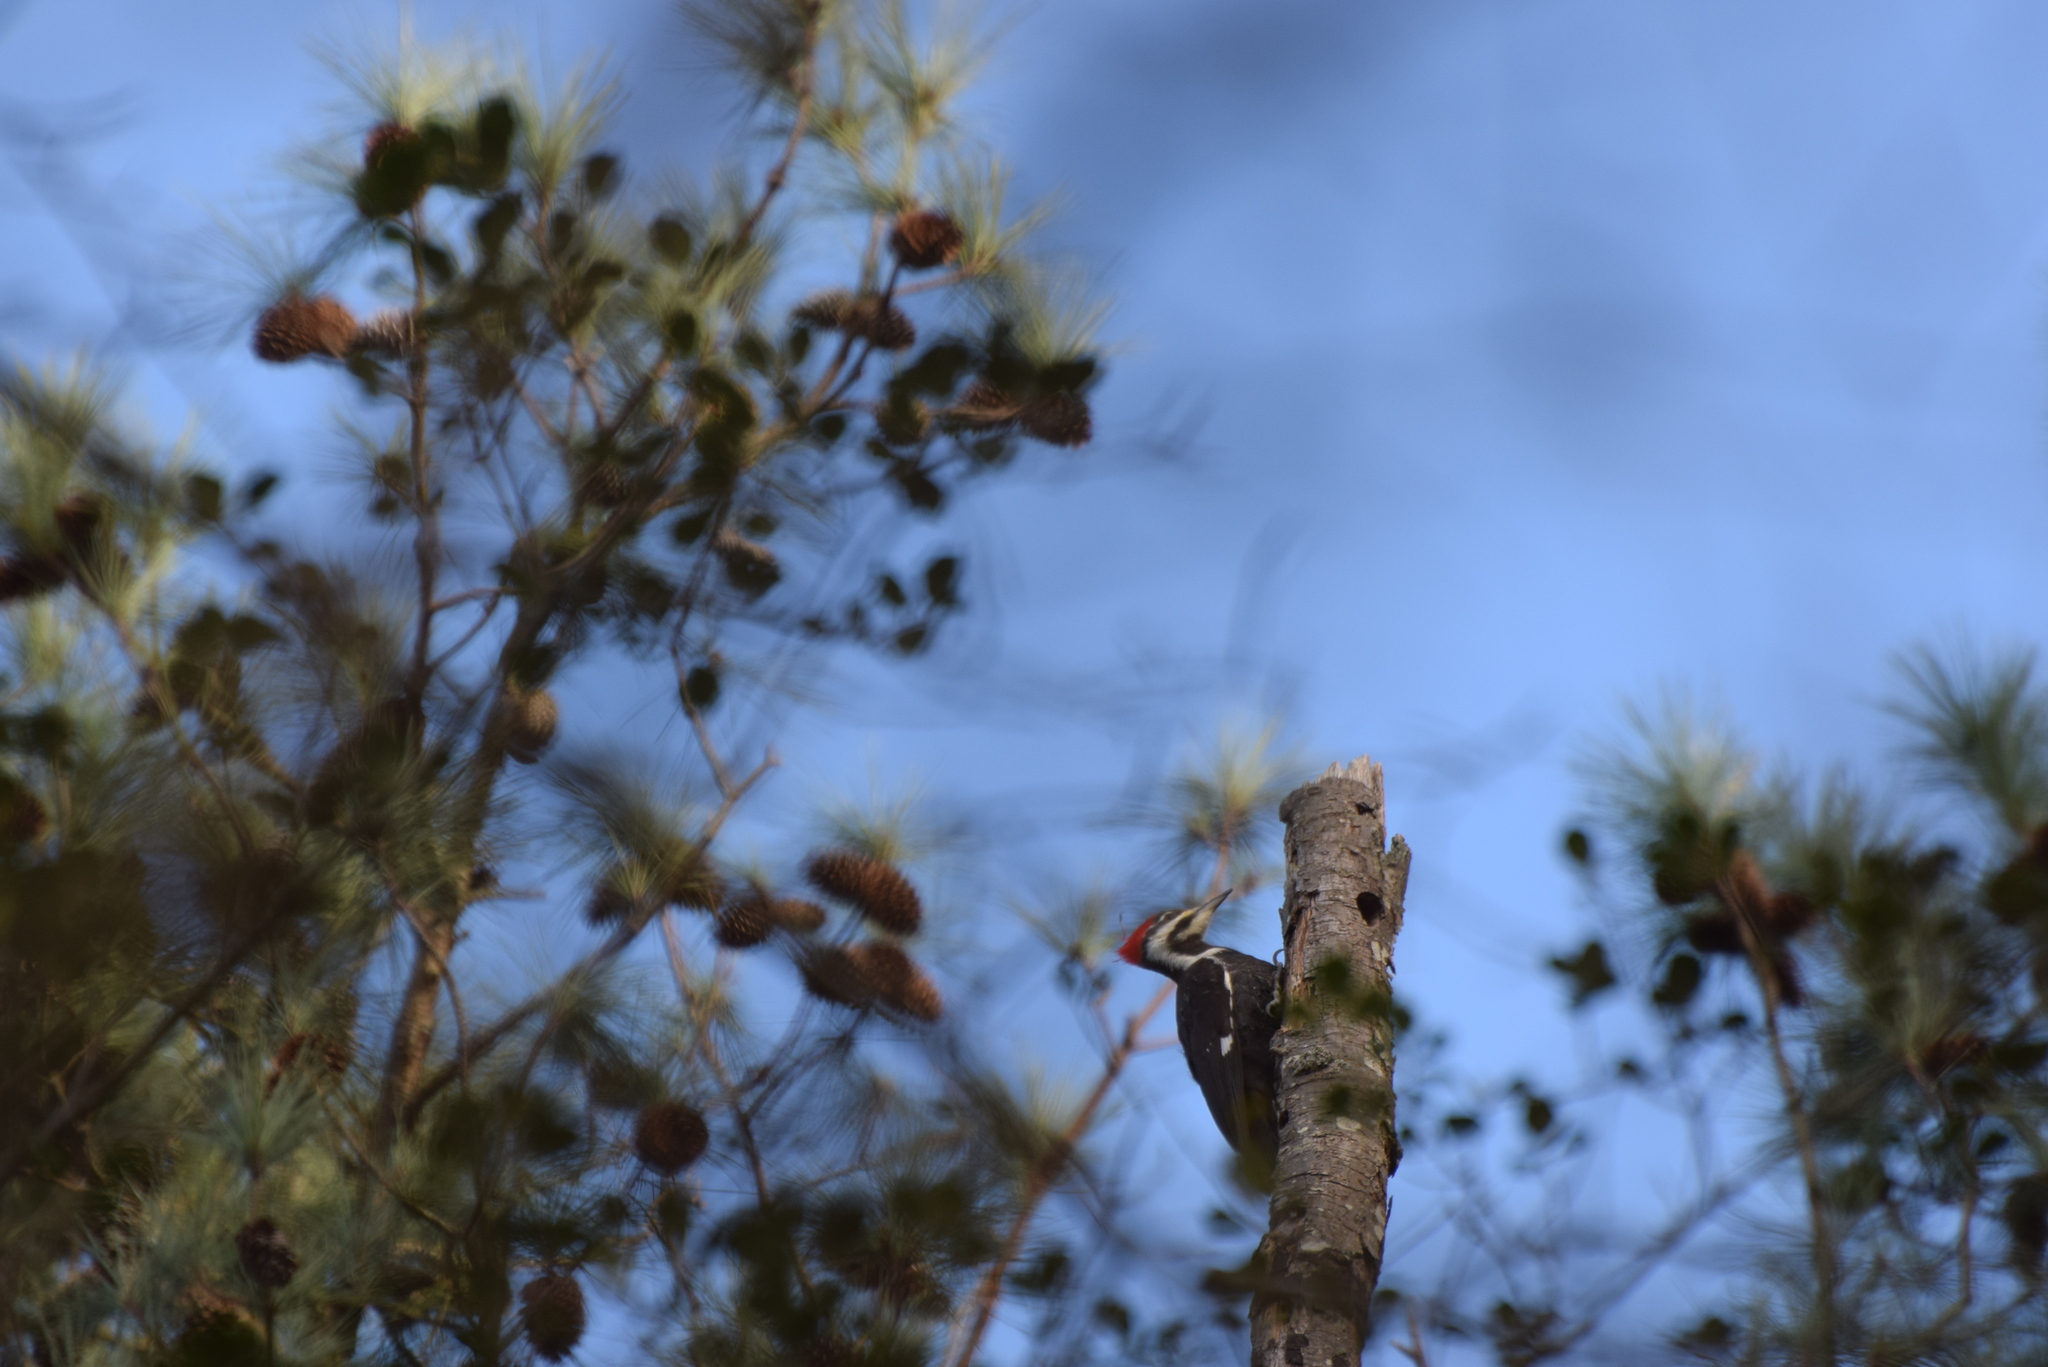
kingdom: Animalia
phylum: Chordata
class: Aves
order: Piciformes
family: Picidae
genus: Dryocopus
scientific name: Dryocopus pileatus
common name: Pileated woodpecker
